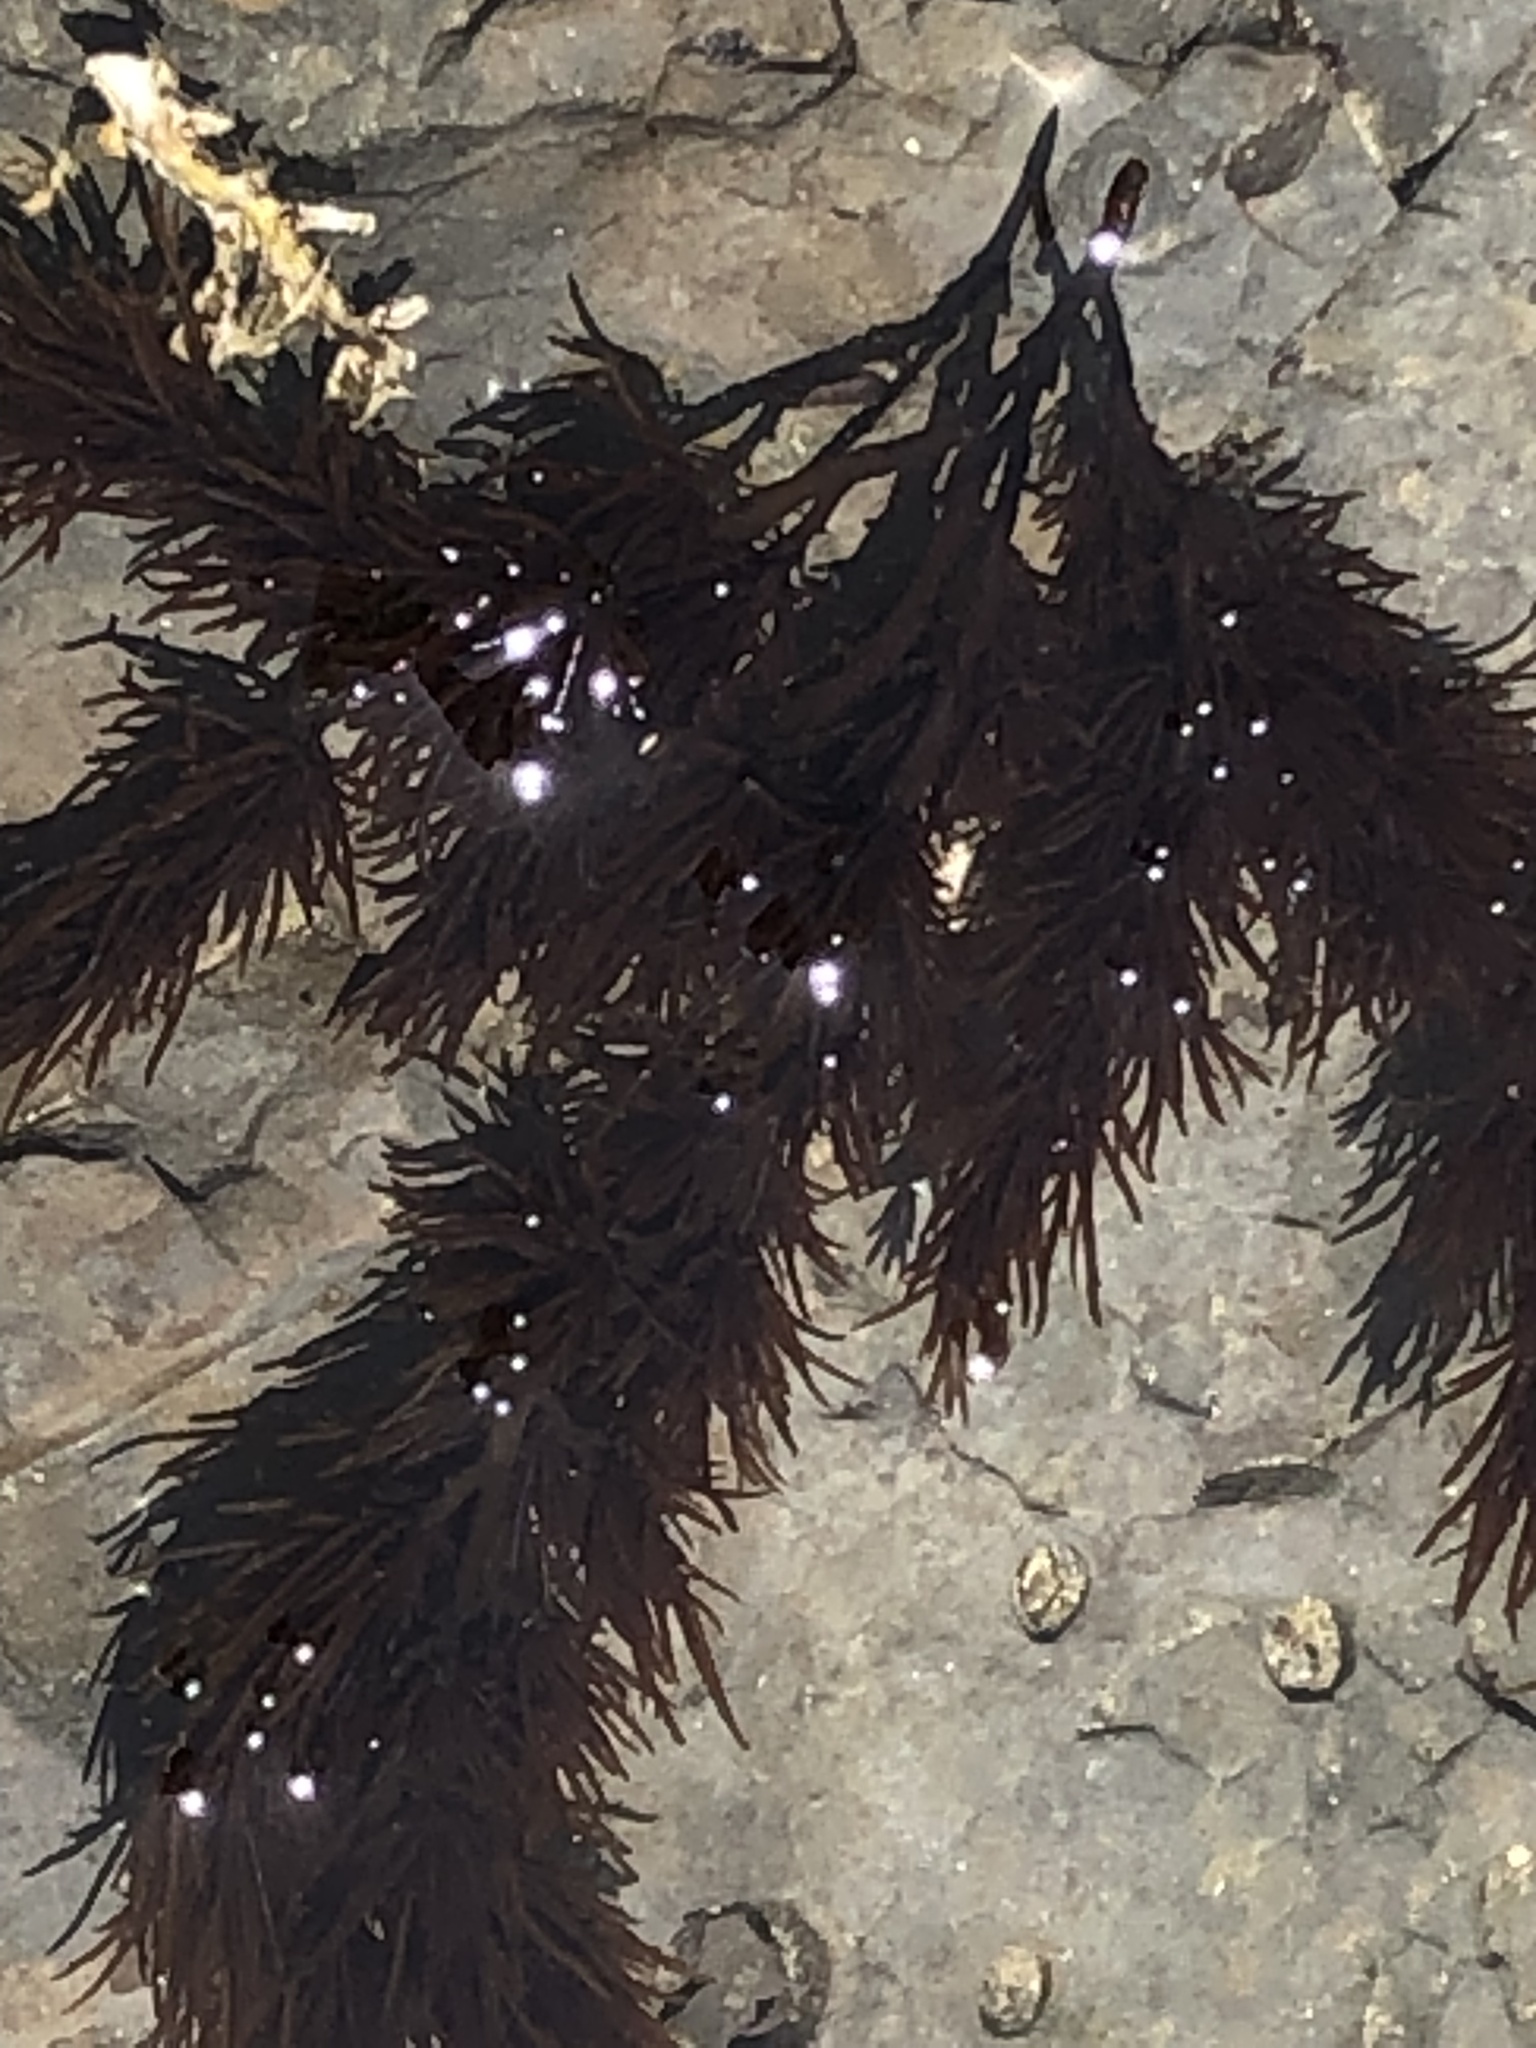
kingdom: Plantae
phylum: Rhodophyta
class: Florideophyceae
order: Ceramiales
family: Rhodomelaceae
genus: Neorhodomela
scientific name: Neorhodomela larix
